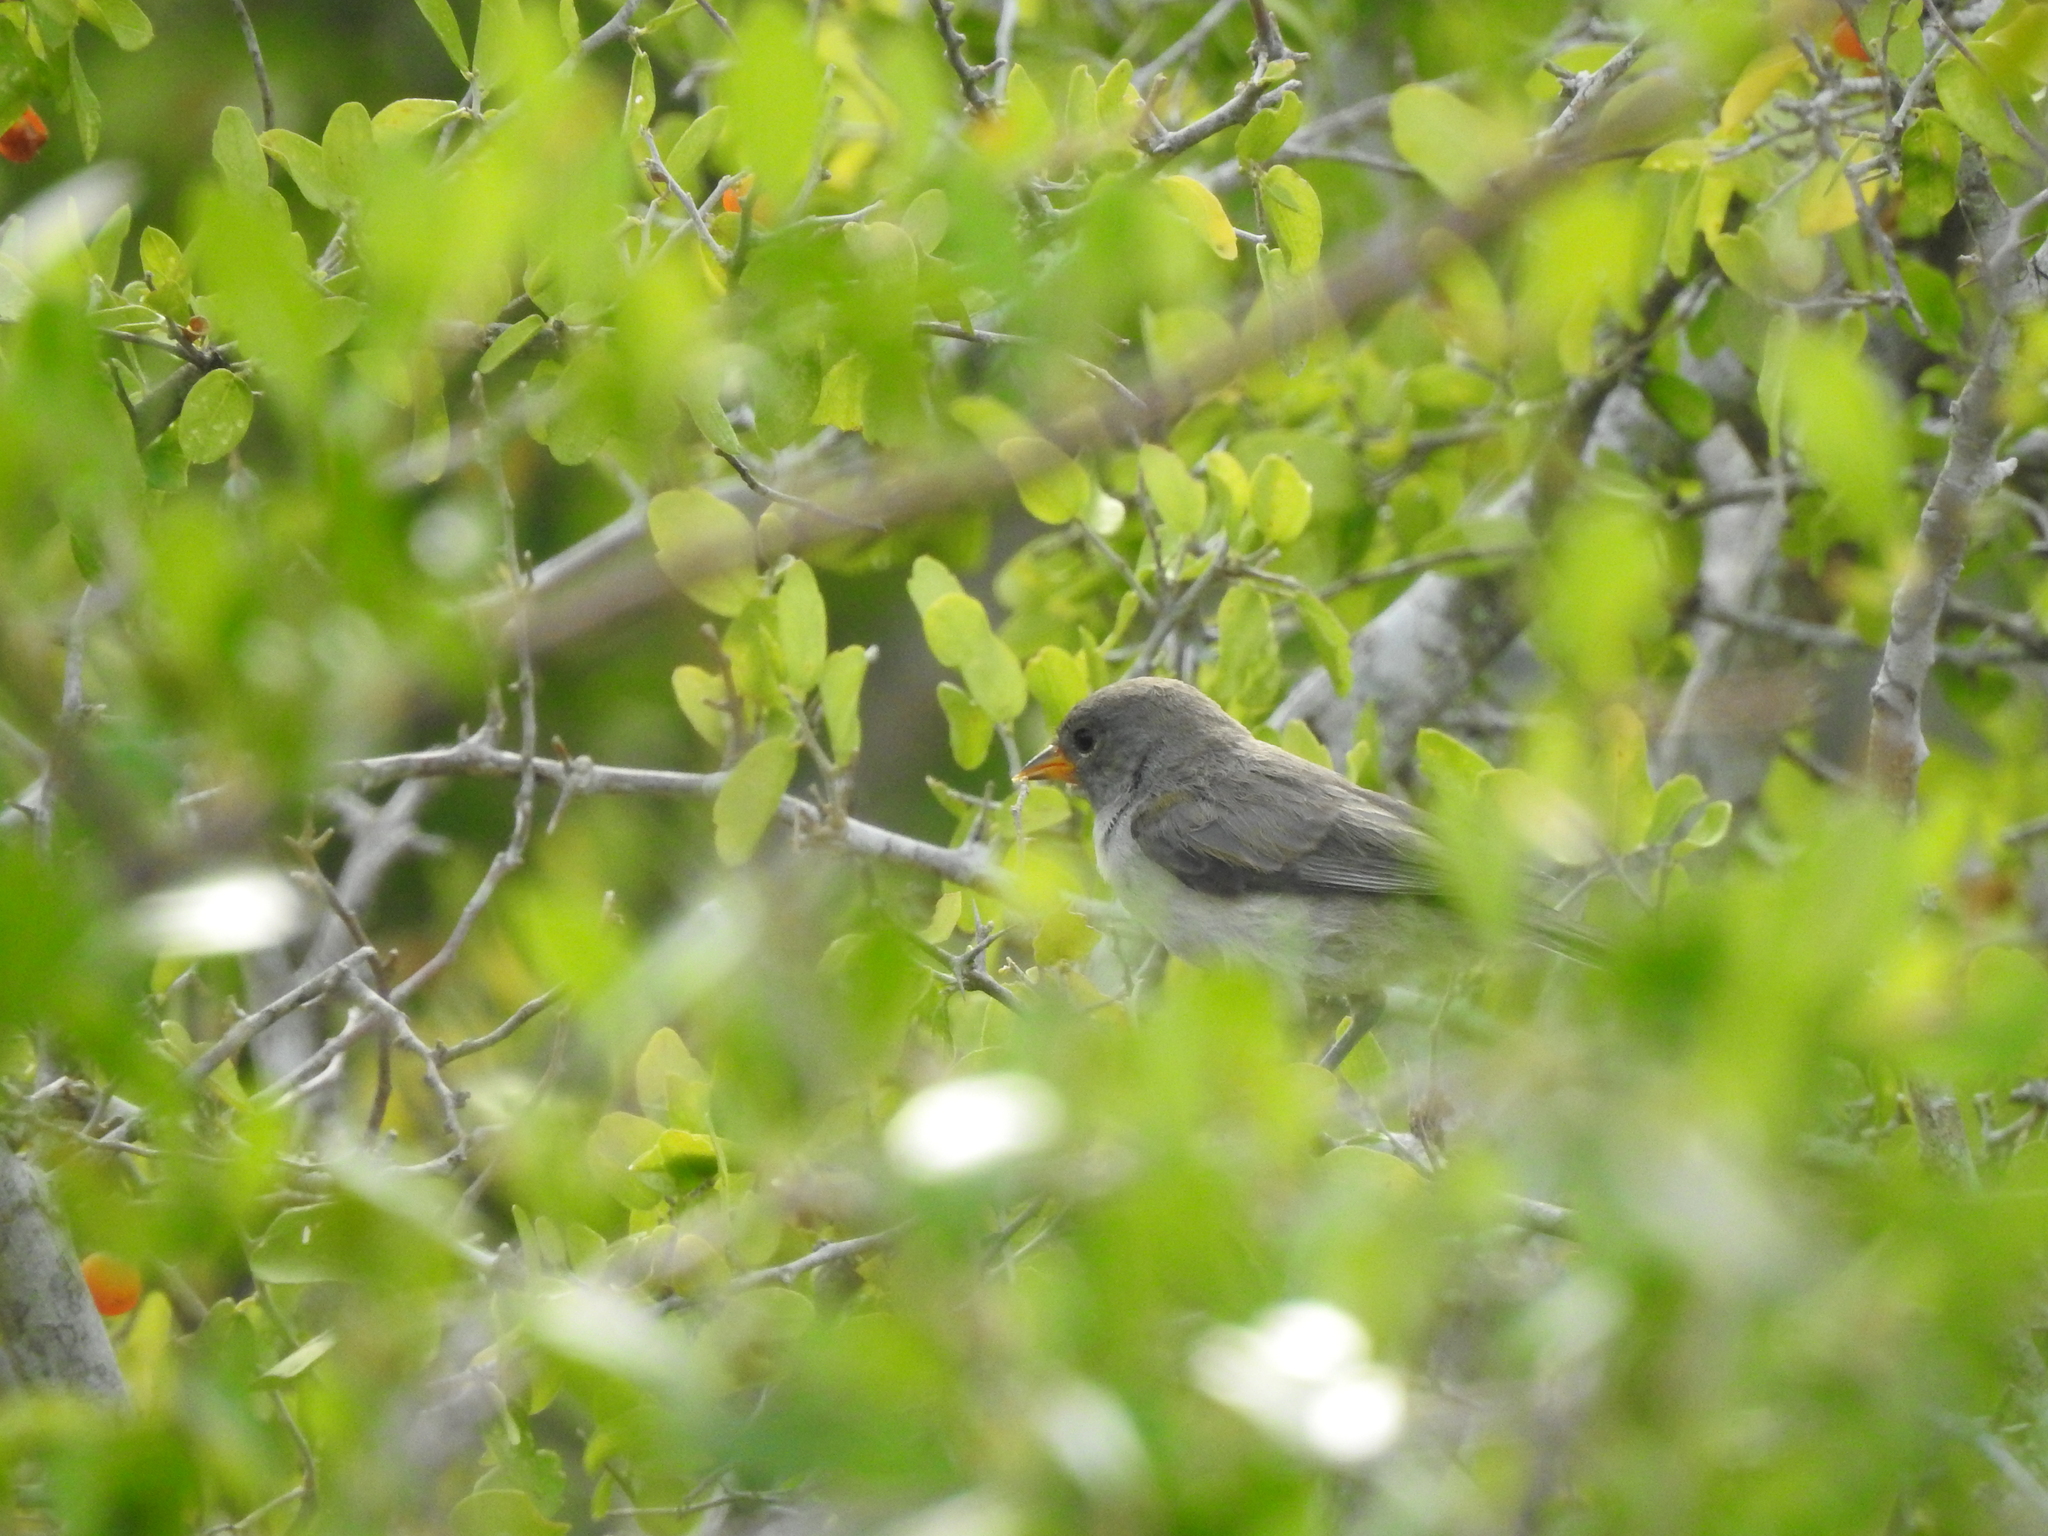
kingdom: Animalia
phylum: Chordata
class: Aves
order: Passeriformes
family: Remizidae
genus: Auriparus
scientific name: Auriparus flaviceps
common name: Verdin
